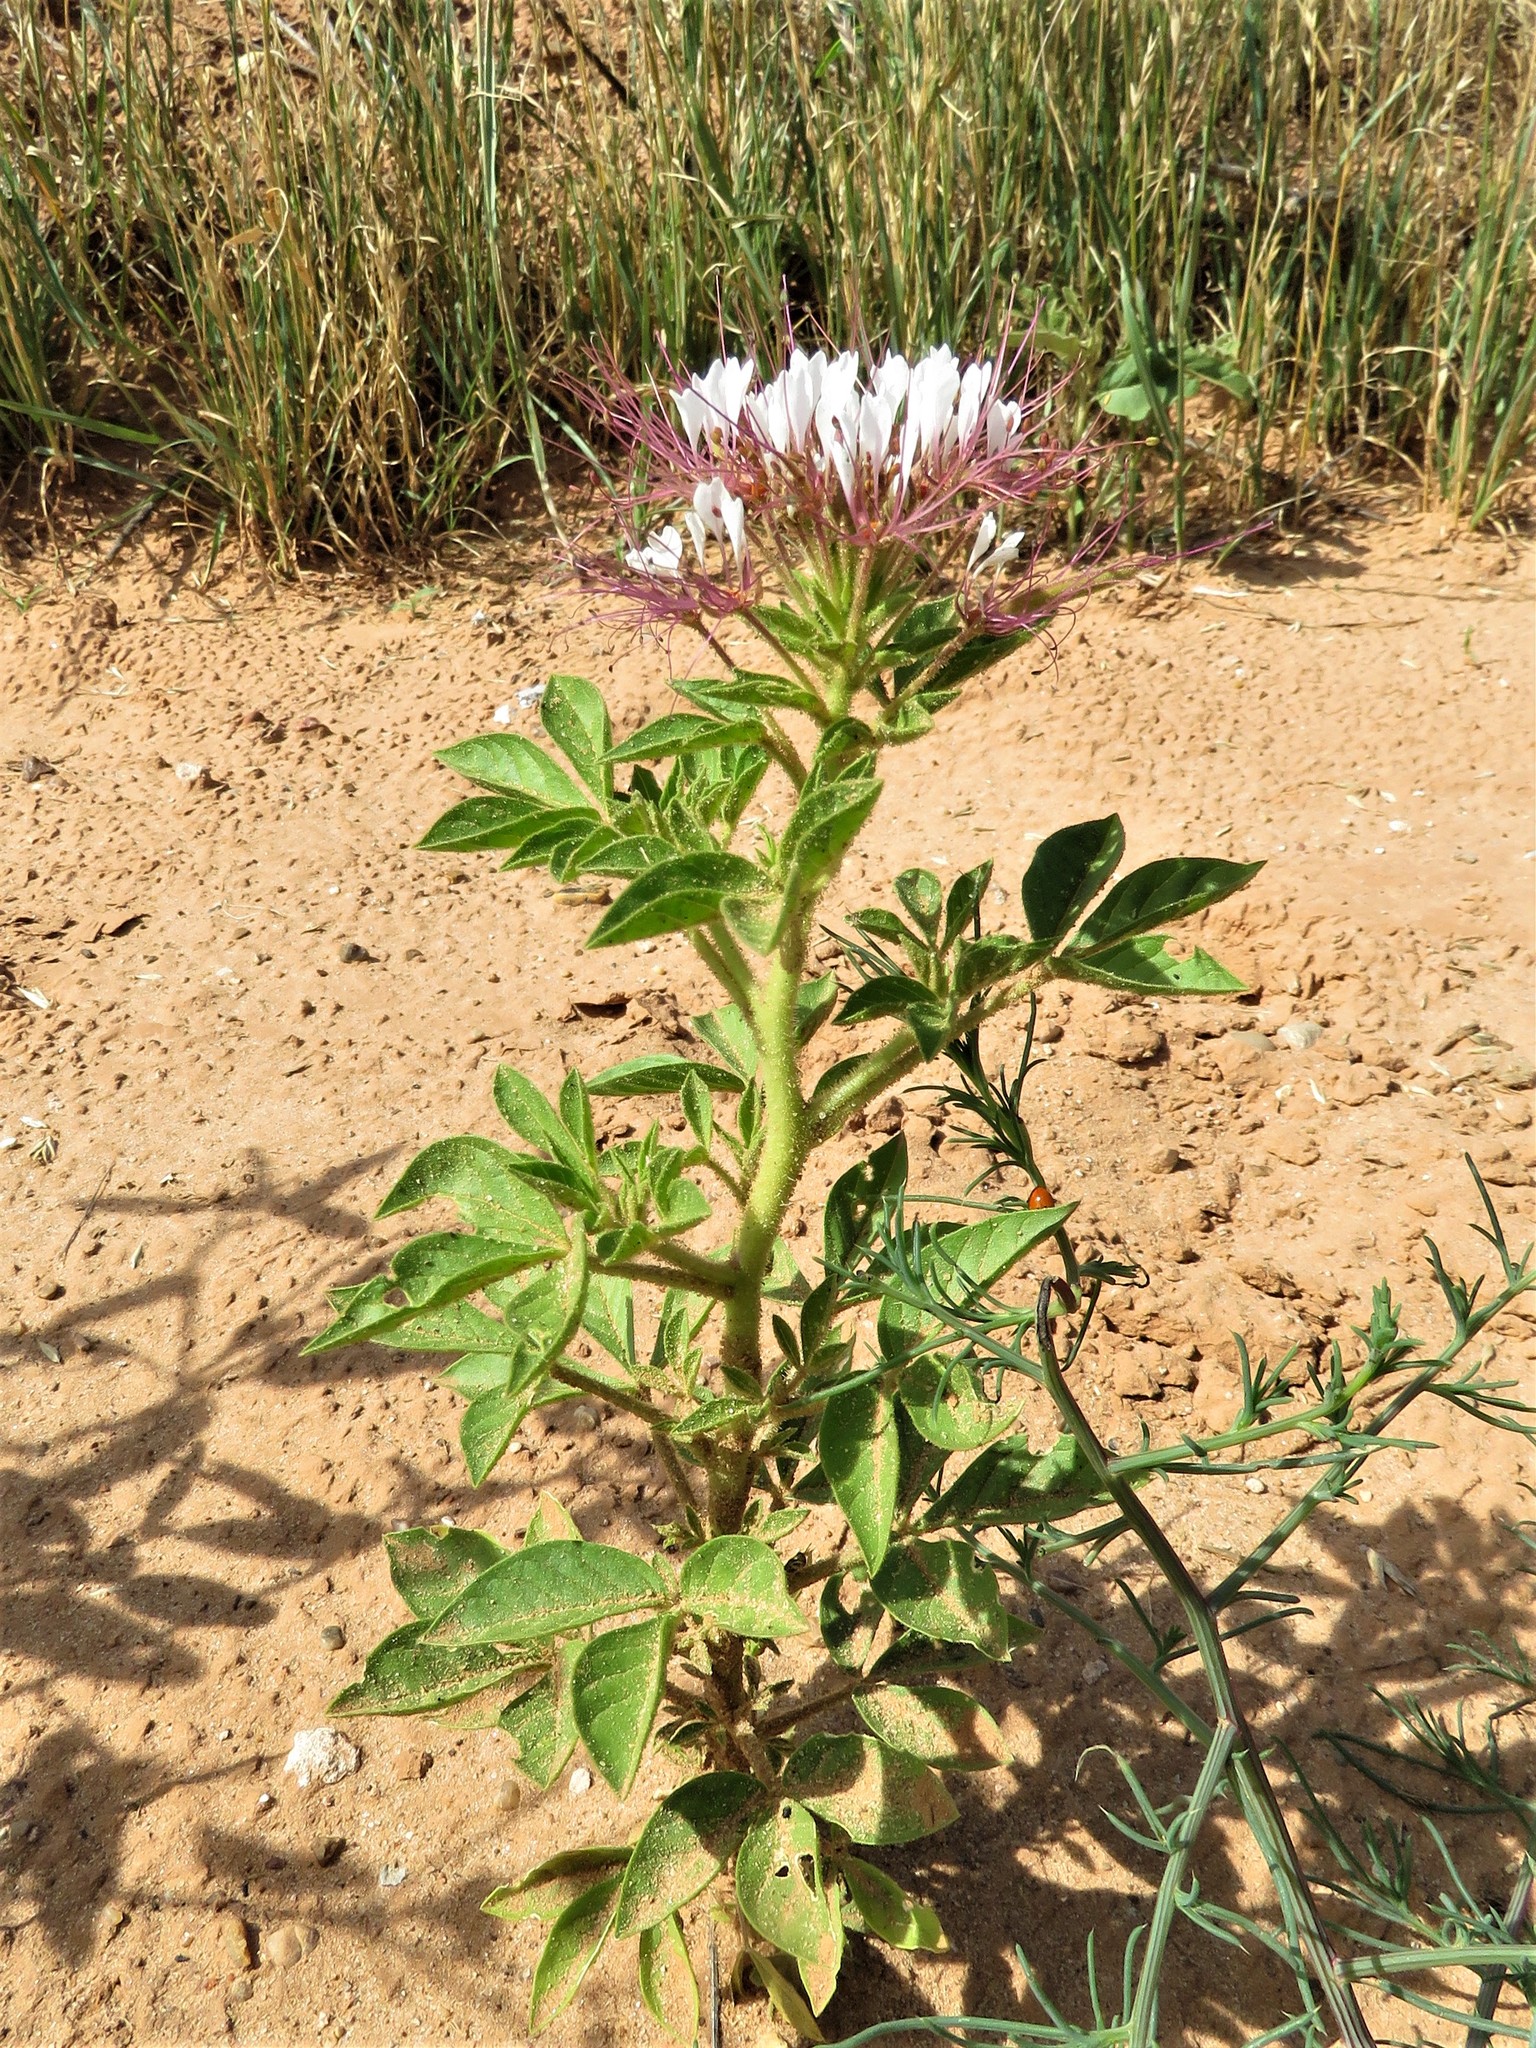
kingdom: Plantae
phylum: Tracheophyta
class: Magnoliopsida
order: Brassicales
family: Cleomaceae
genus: Polanisia
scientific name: Polanisia dodecandra
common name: Clammyweed
